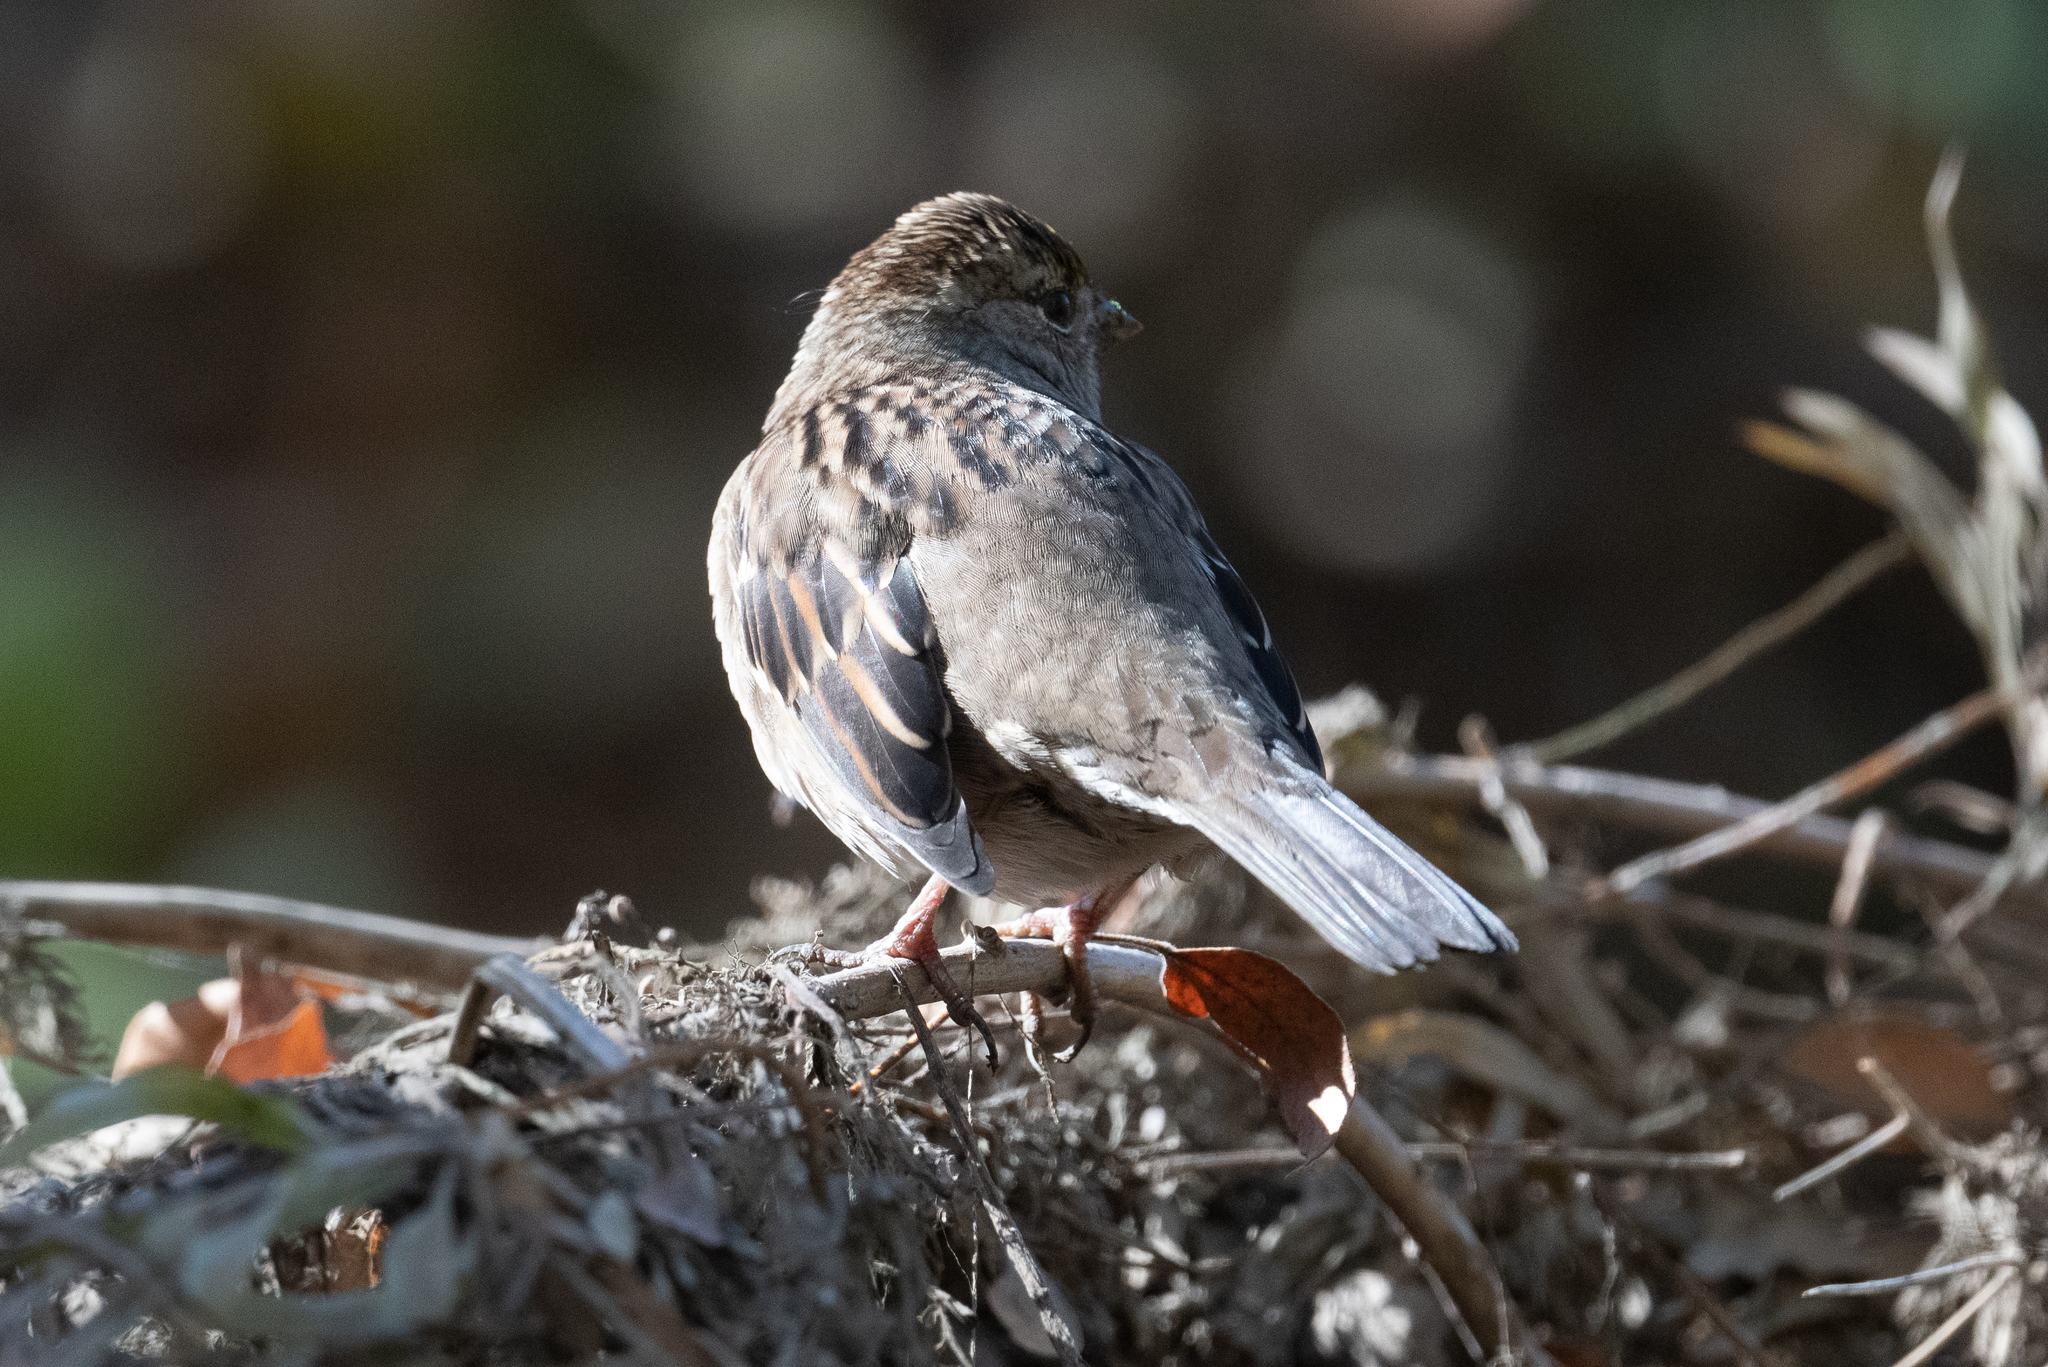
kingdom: Animalia
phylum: Chordata
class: Aves
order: Passeriformes
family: Passerellidae
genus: Zonotrichia
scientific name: Zonotrichia atricapilla
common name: Golden-crowned sparrow
